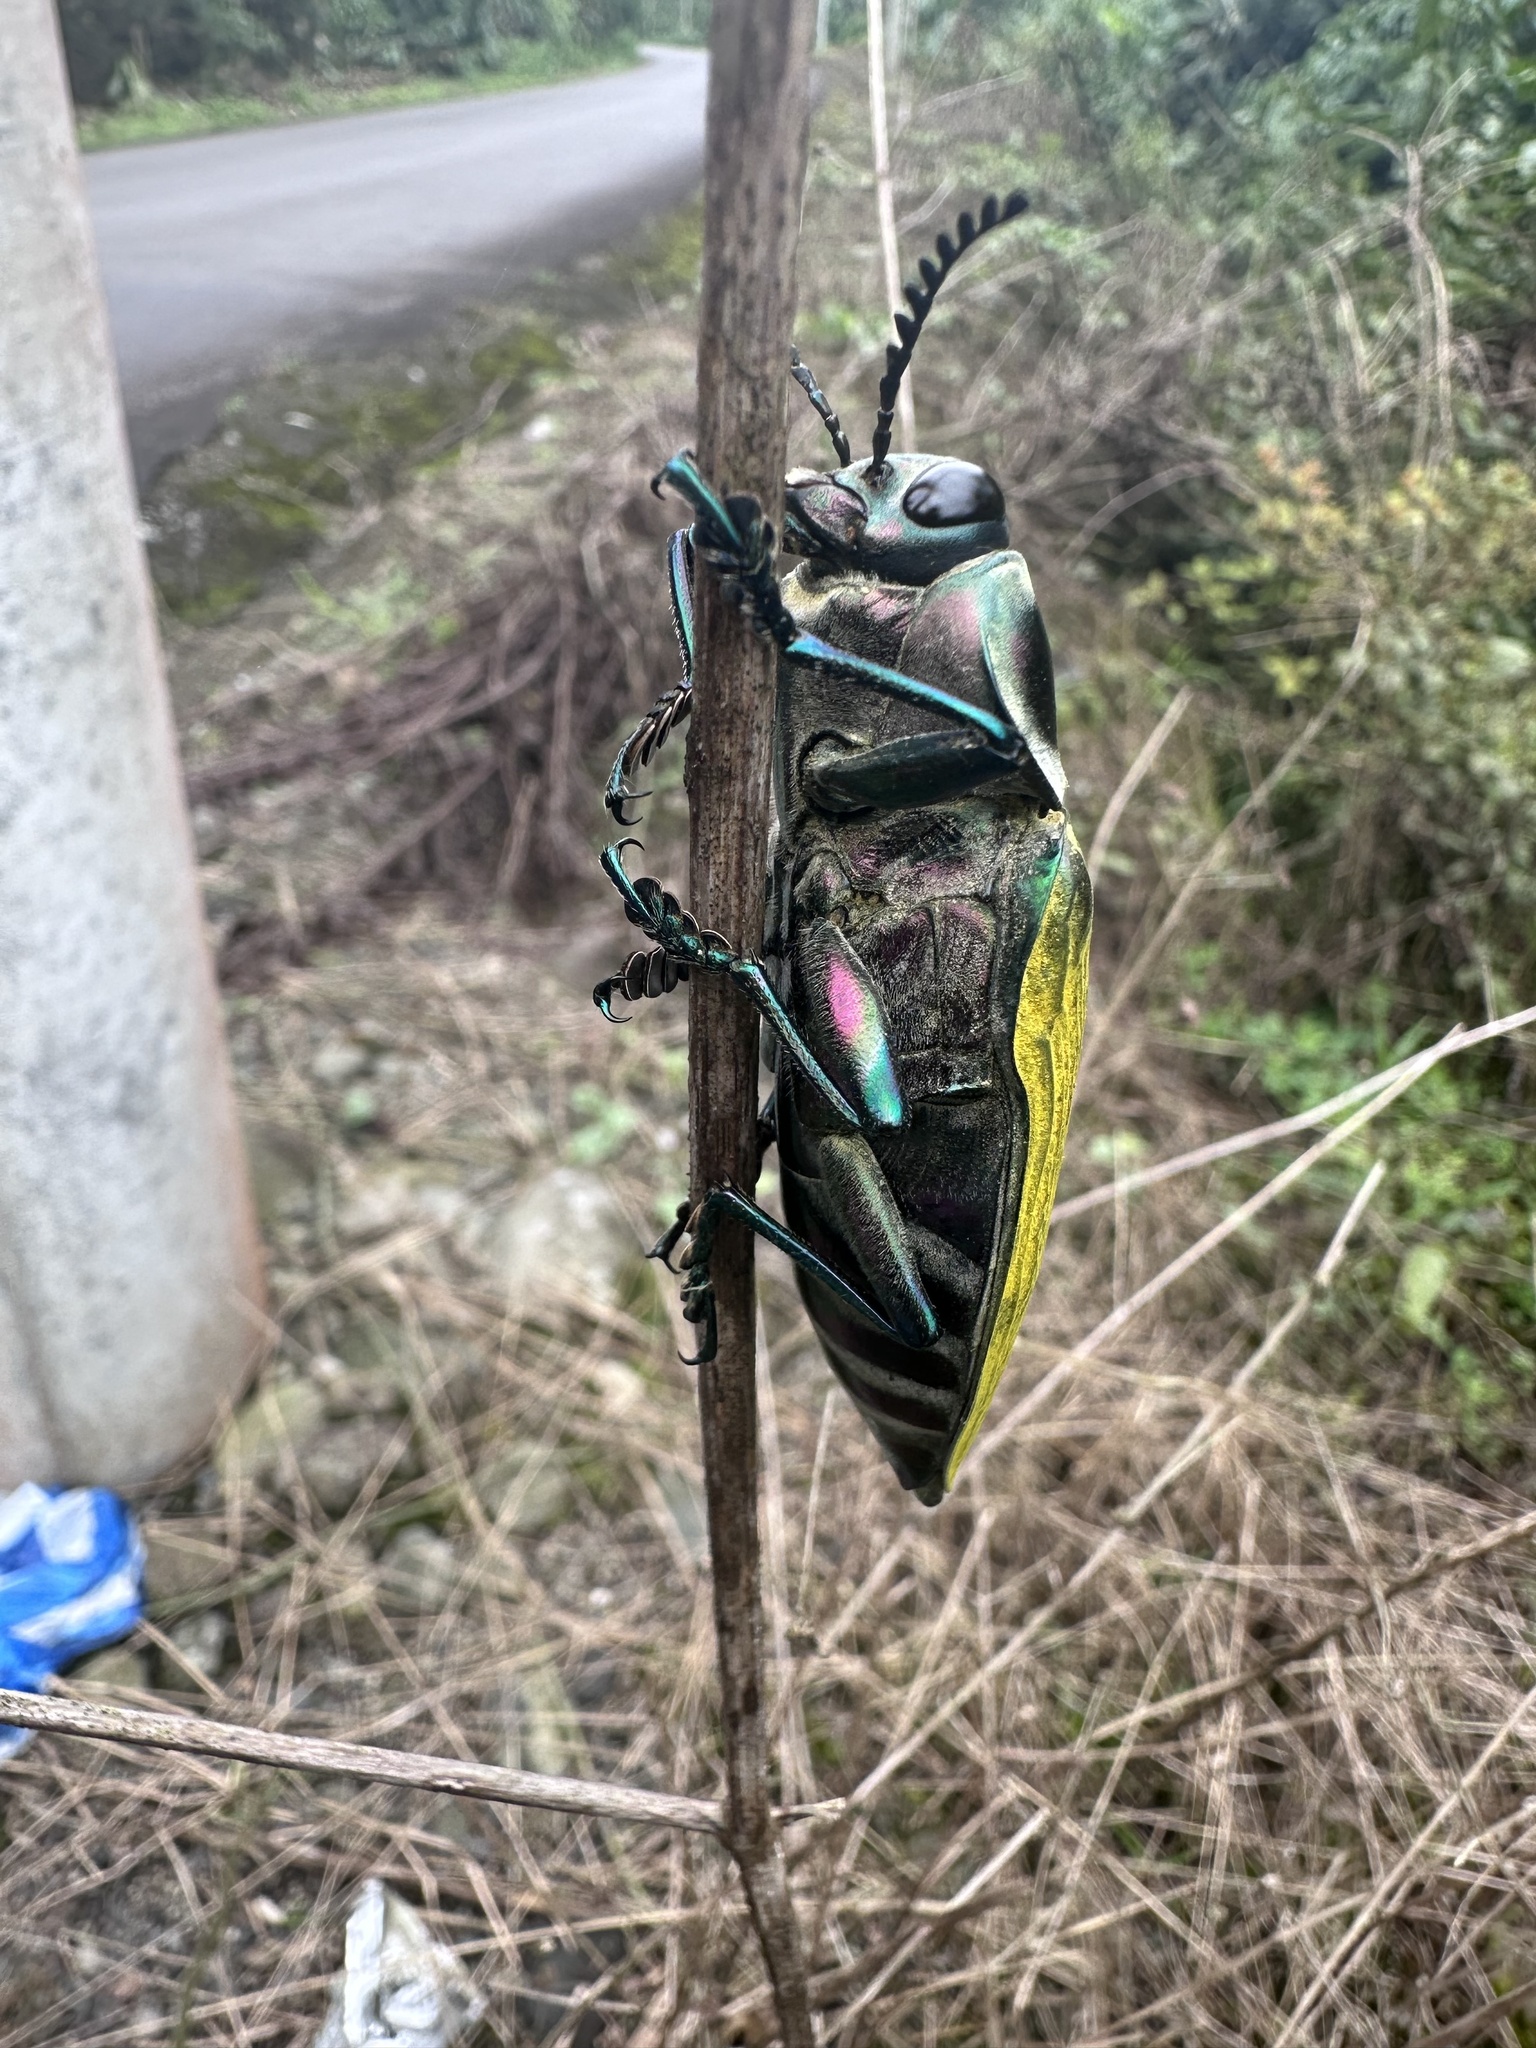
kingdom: Animalia
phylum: Arthropoda
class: Insecta
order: Coleoptera
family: Buprestidae
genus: Euchroma
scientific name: Euchroma giganteum
